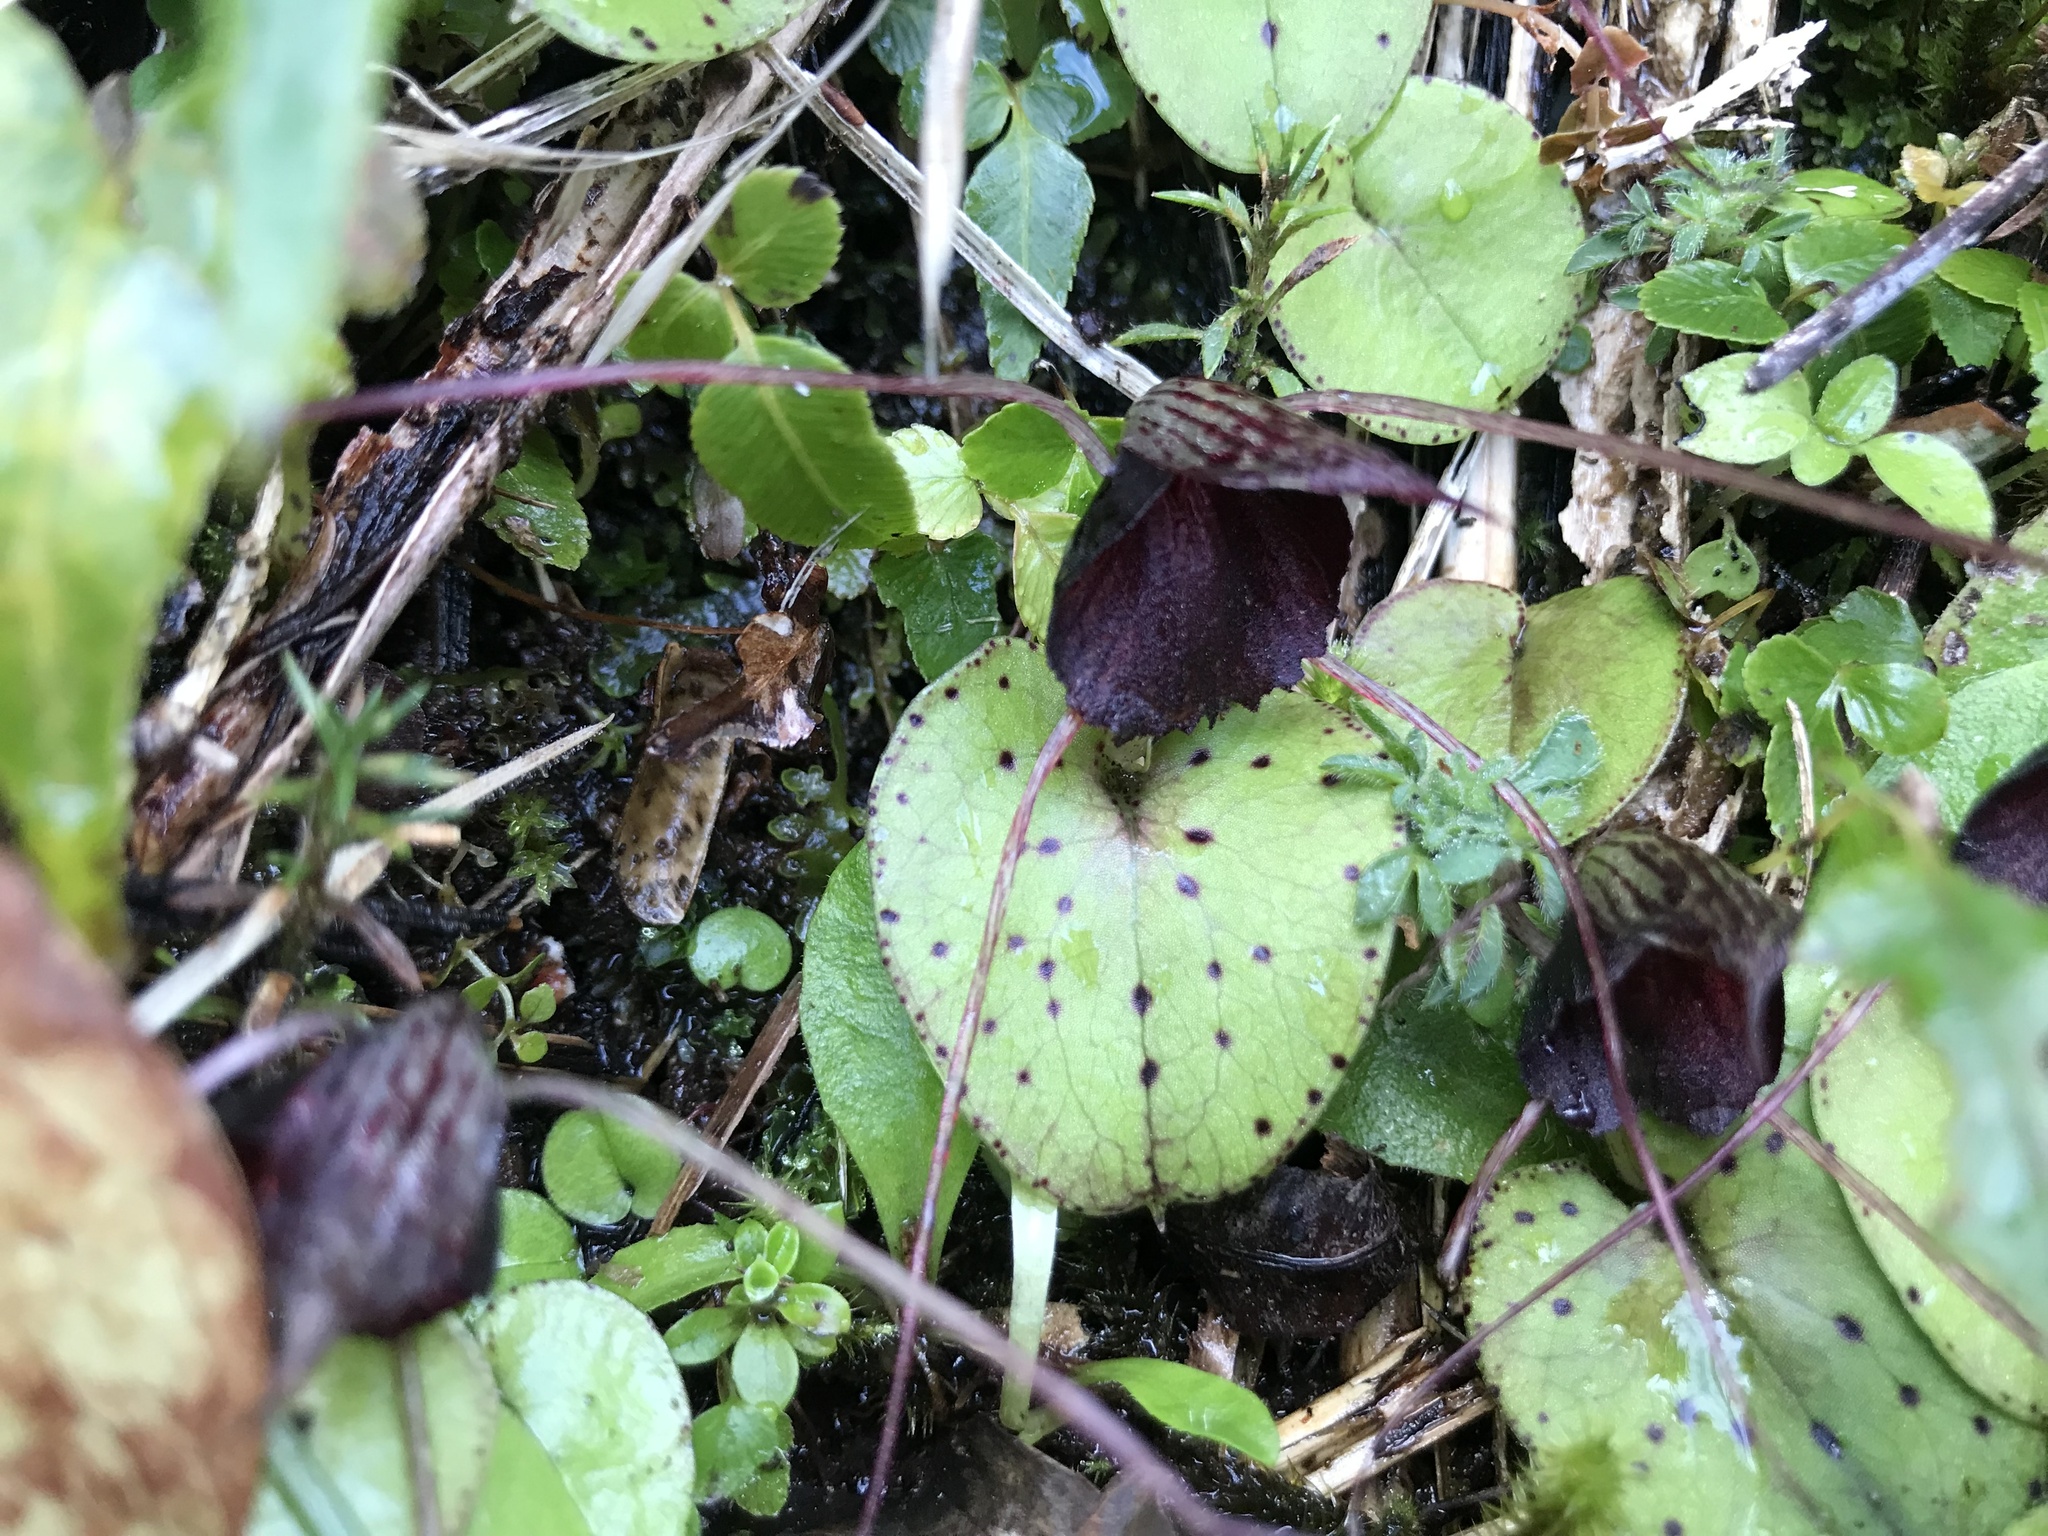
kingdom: Plantae
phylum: Tracheophyta
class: Liliopsida
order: Asparagales
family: Orchidaceae
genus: Corybas
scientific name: Corybas iridescens
